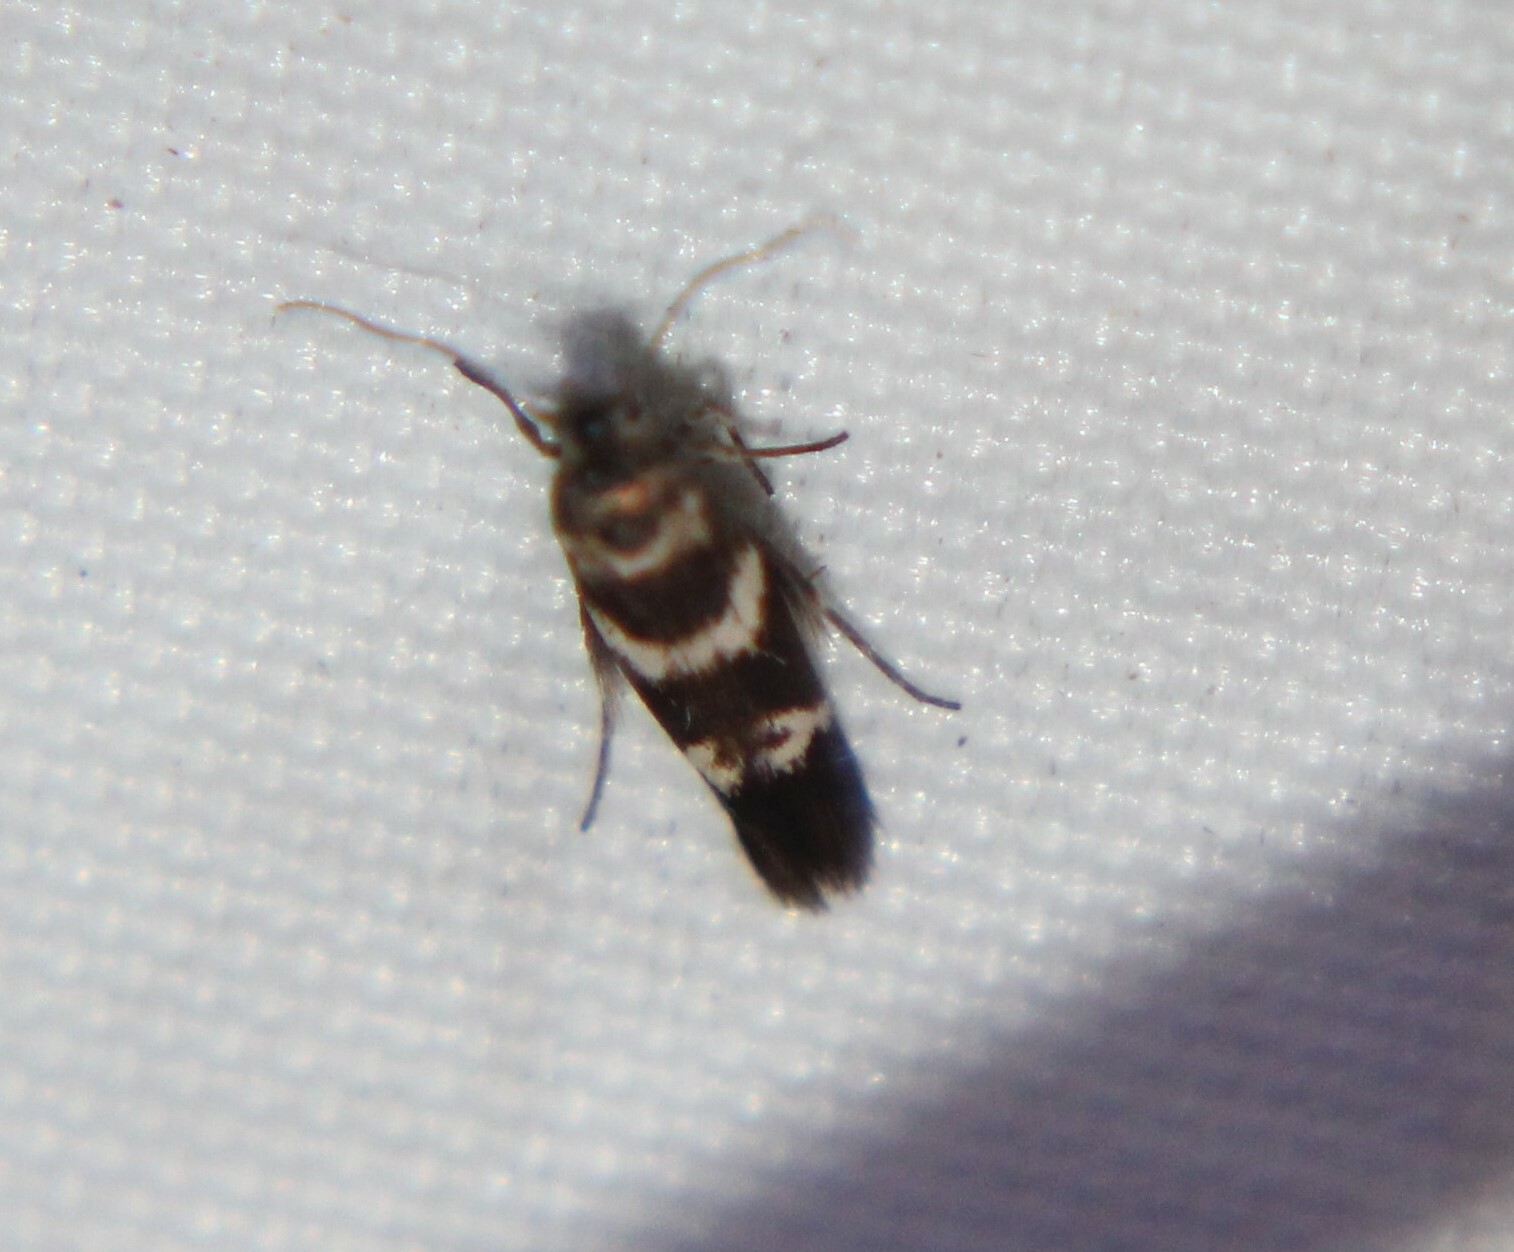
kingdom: Animalia
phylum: Arthropoda
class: Insecta
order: Lepidoptera
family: Scythrididae
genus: Scythris
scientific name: Scythris trivinctella
